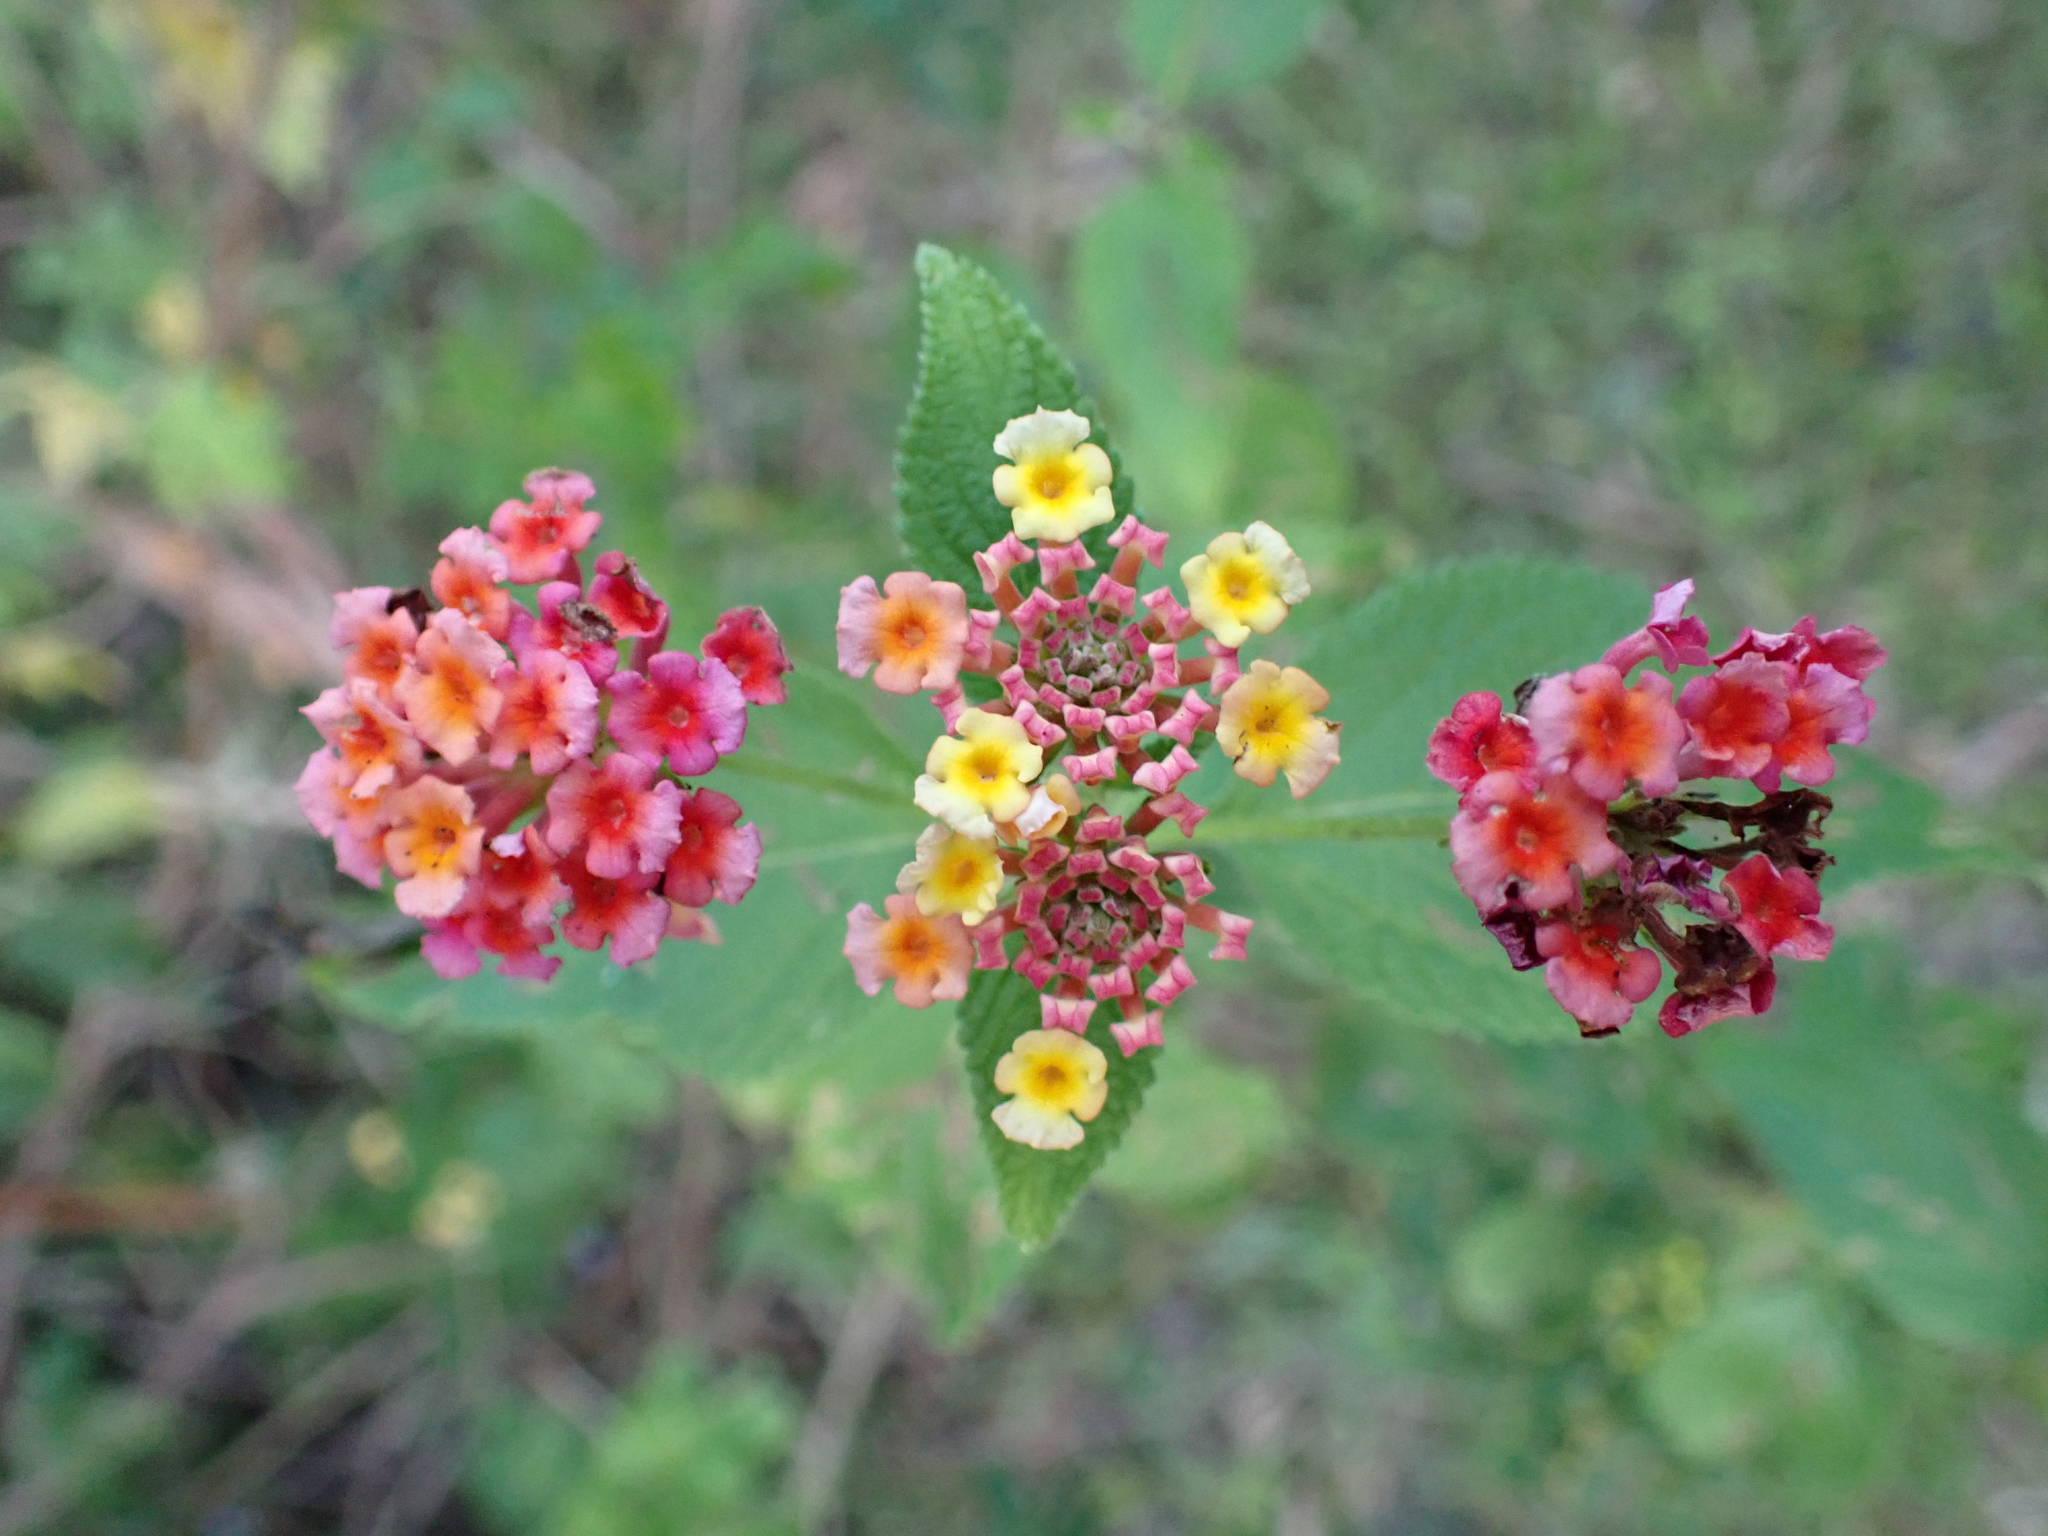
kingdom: Plantae
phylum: Tracheophyta
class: Magnoliopsida
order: Lamiales
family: Verbenaceae
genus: Lantana
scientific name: Lantana camara
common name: Lantana
